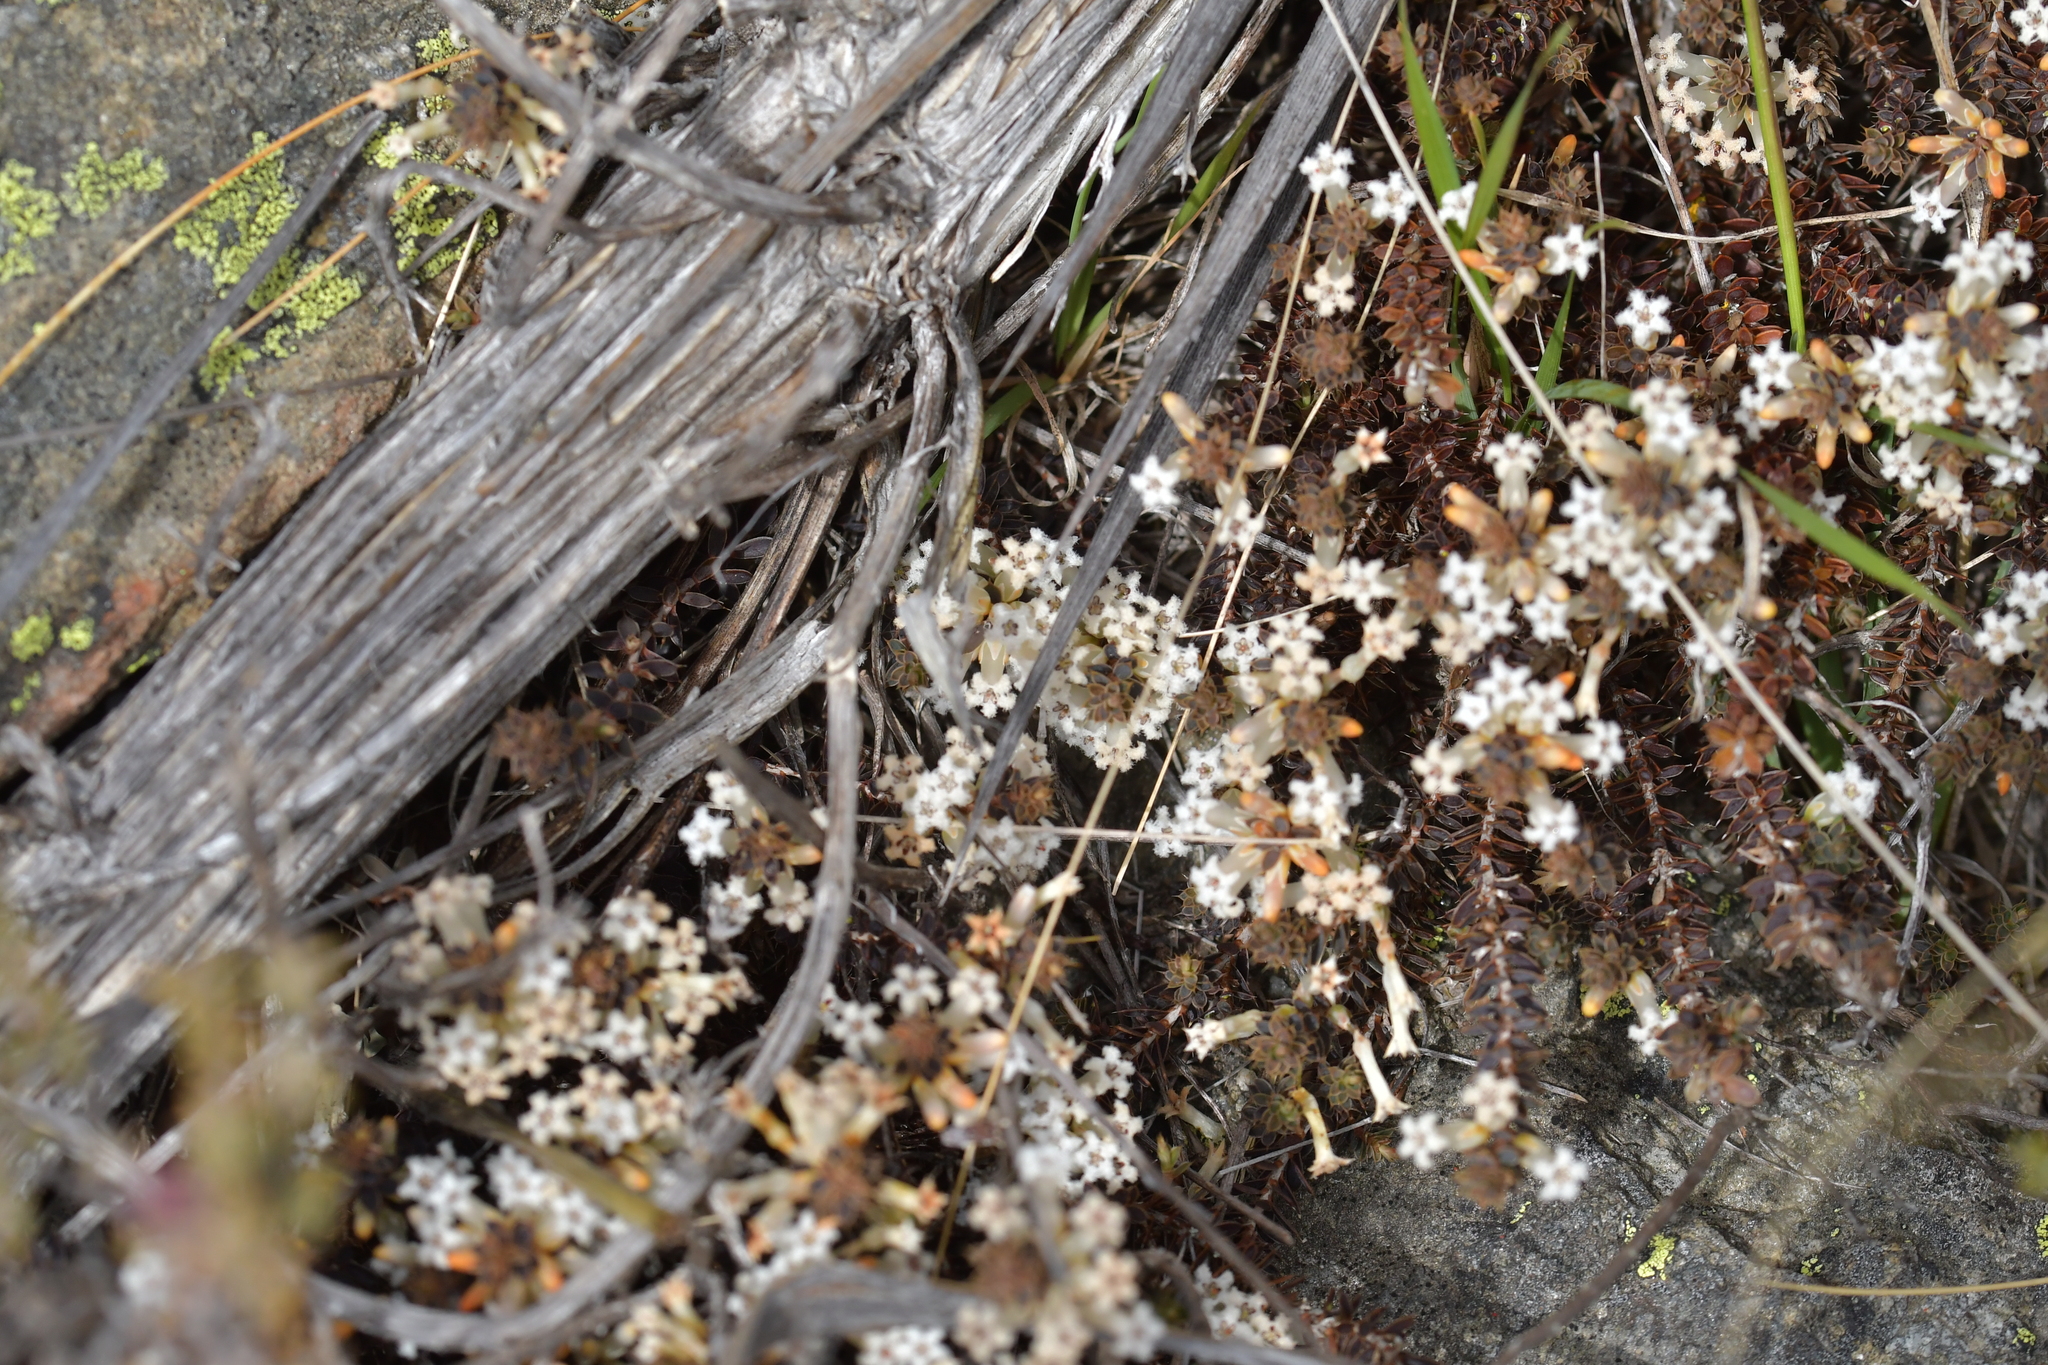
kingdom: Plantae
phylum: Tracheophyta
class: Magnoliopsida
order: Ericales
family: Ericaceae
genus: Styphelia
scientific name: Styphelia nesophila
